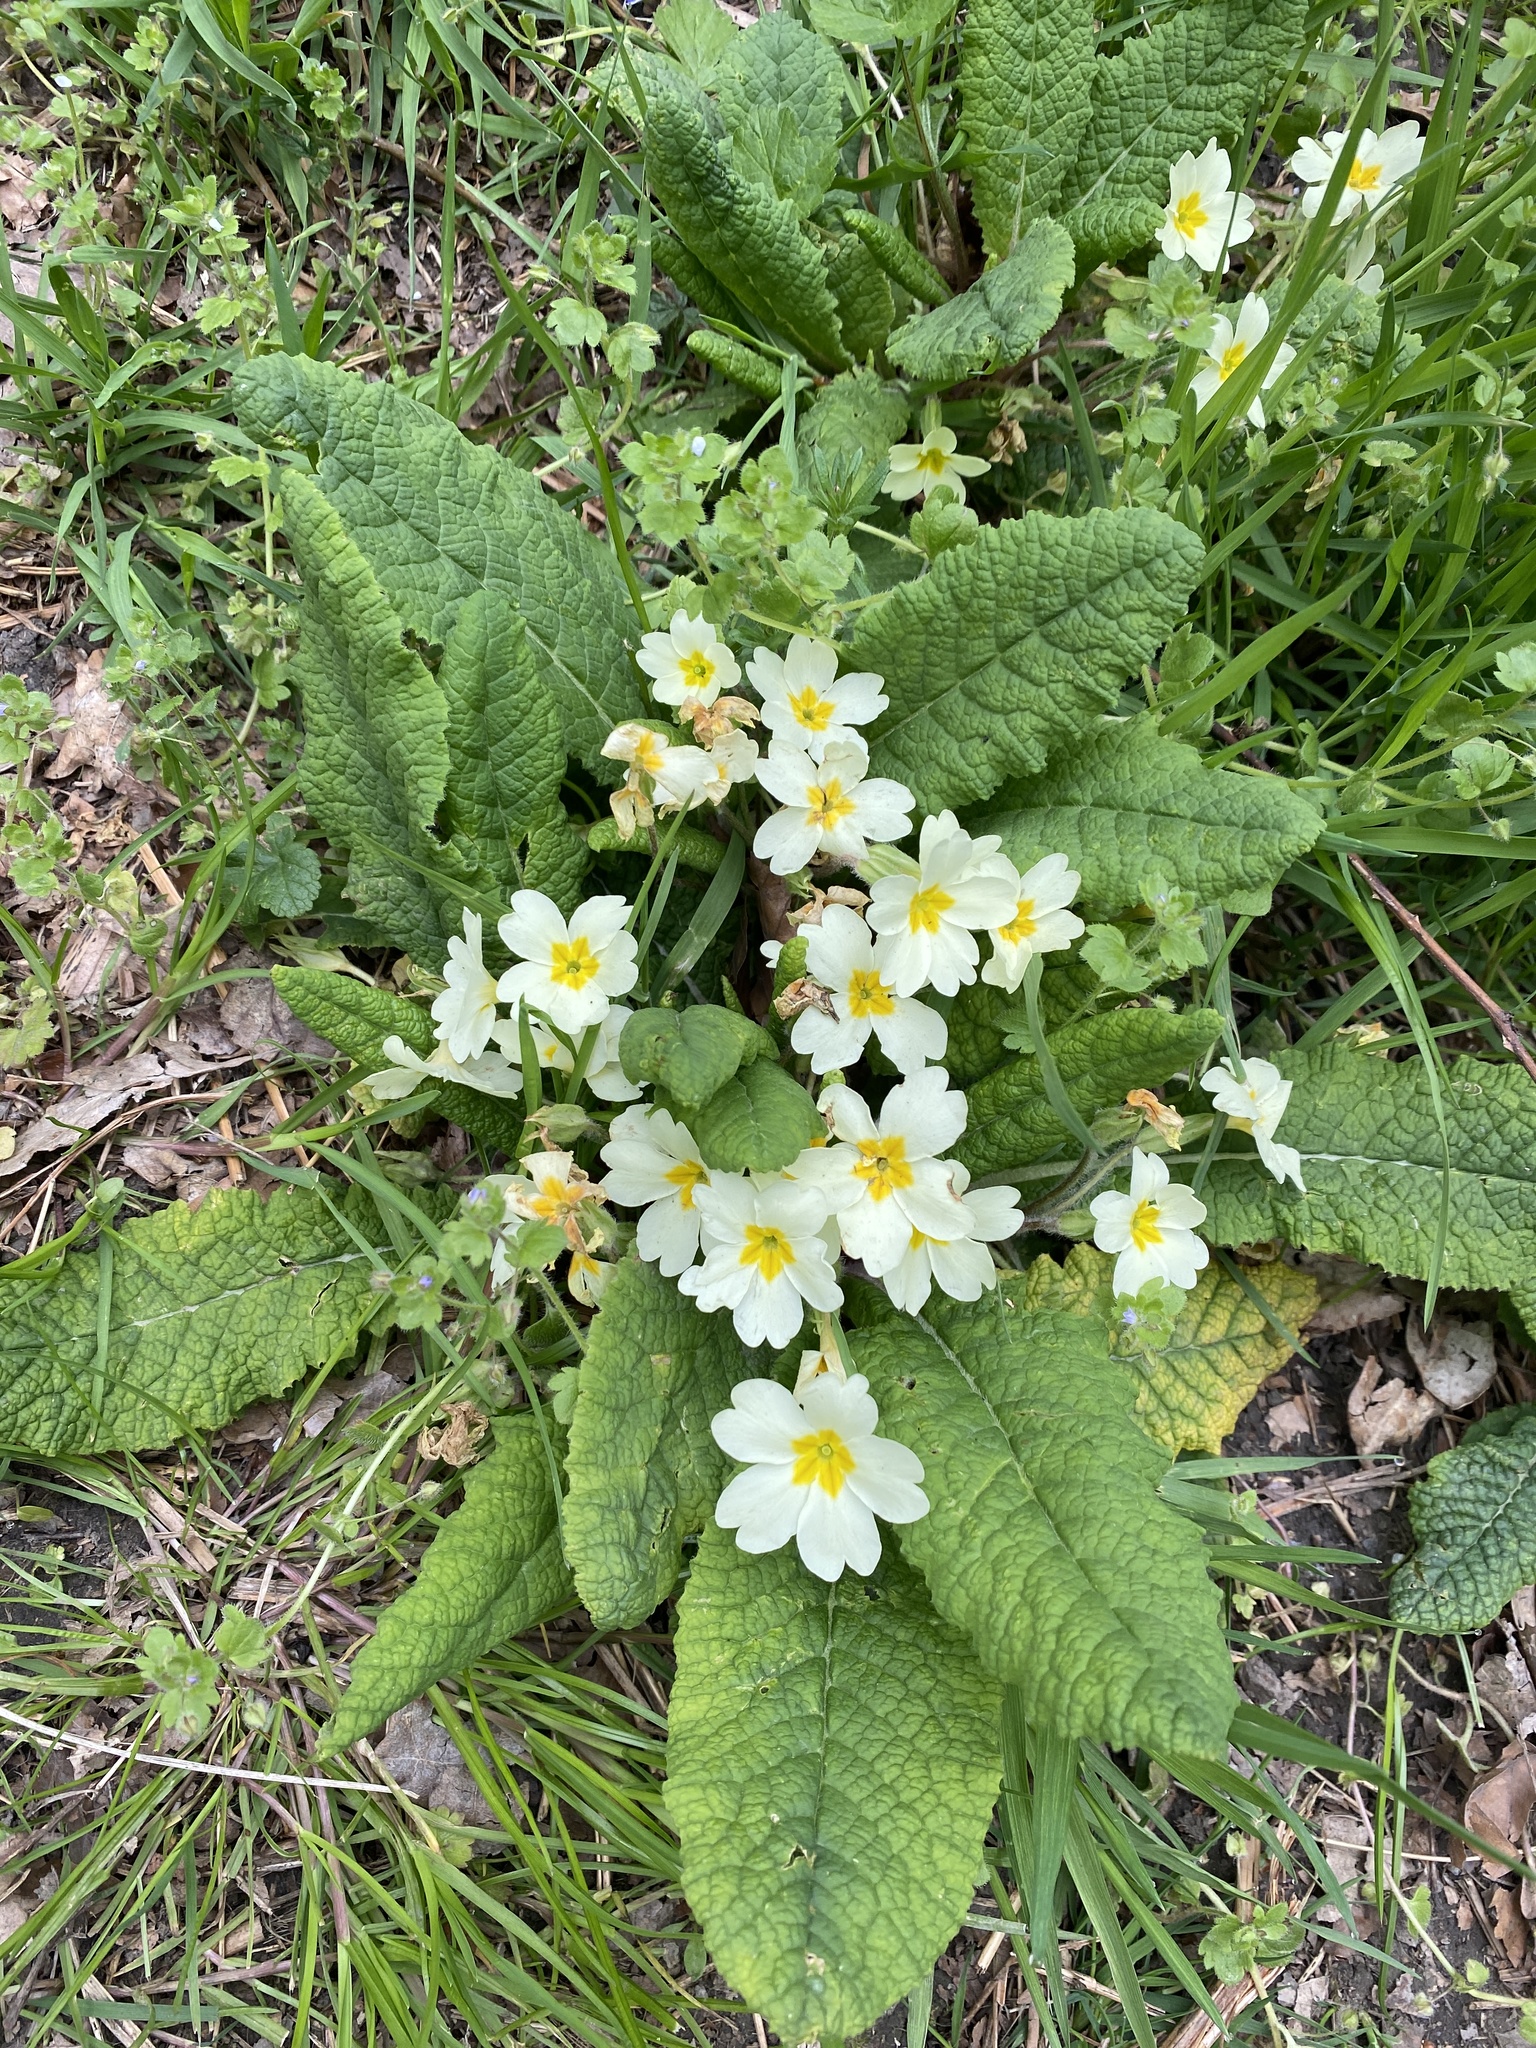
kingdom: Plantae
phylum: Tracheophyta
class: Magnoliopsida
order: Ericales
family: Primulaceae
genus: Primula
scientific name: Primula vulgaris
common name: Primrose
